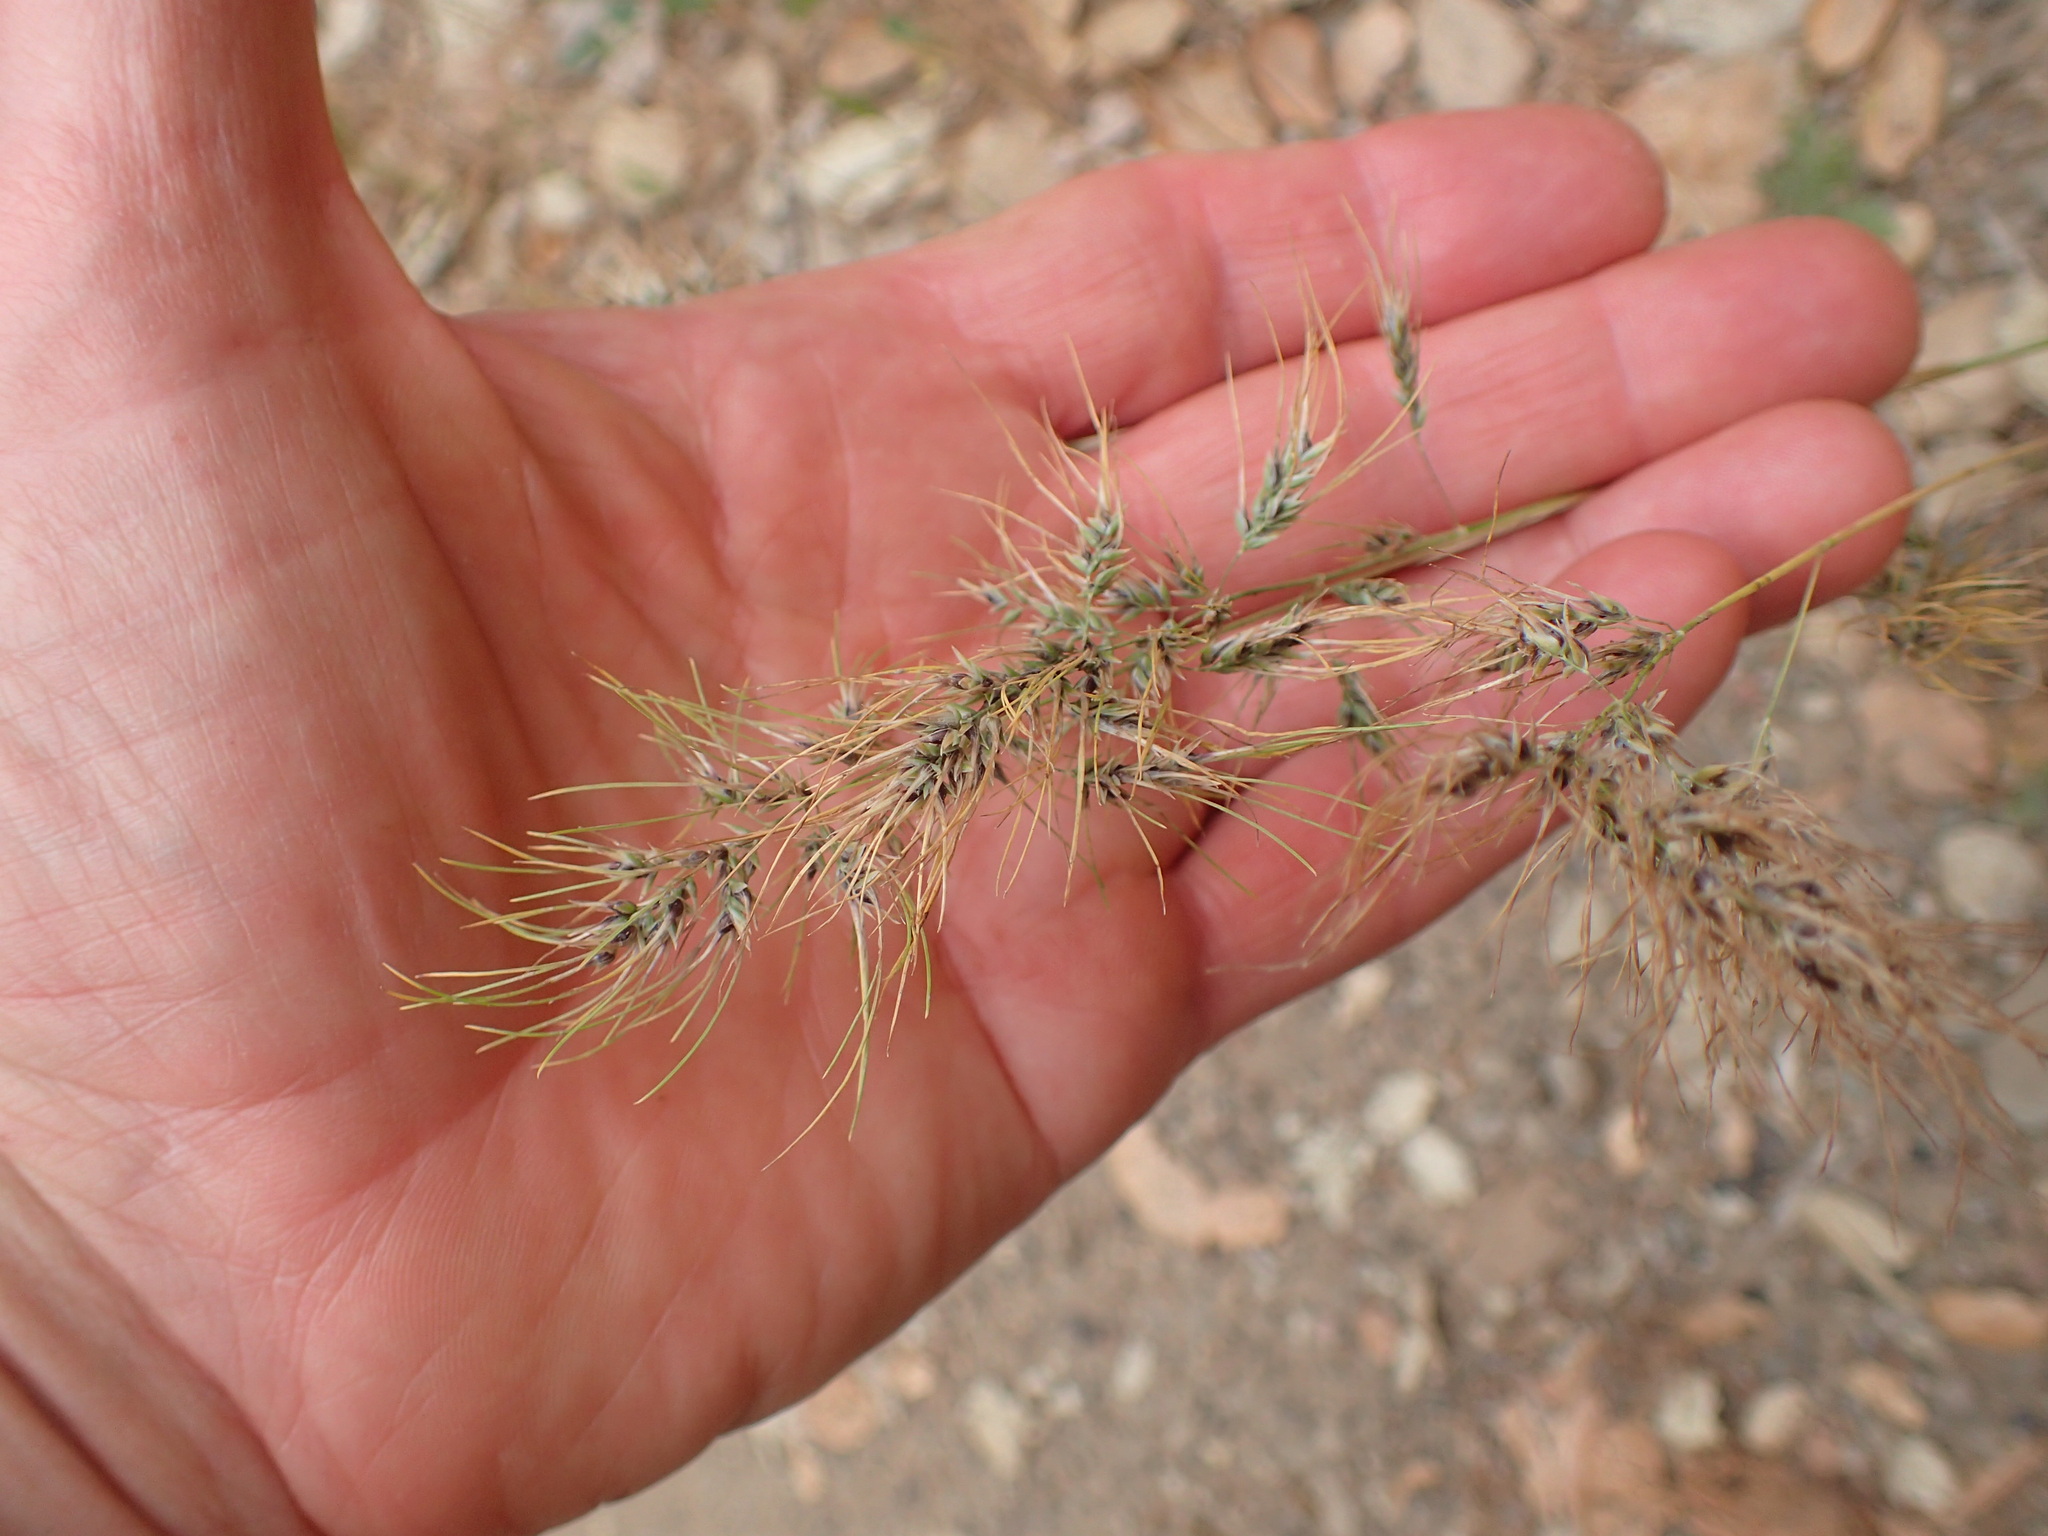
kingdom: Plantae
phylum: Tracheophyta
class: Liliopsida
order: Poales
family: Poaceae
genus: Poa
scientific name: Poa bulbosa
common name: Bulbous bluegrass
